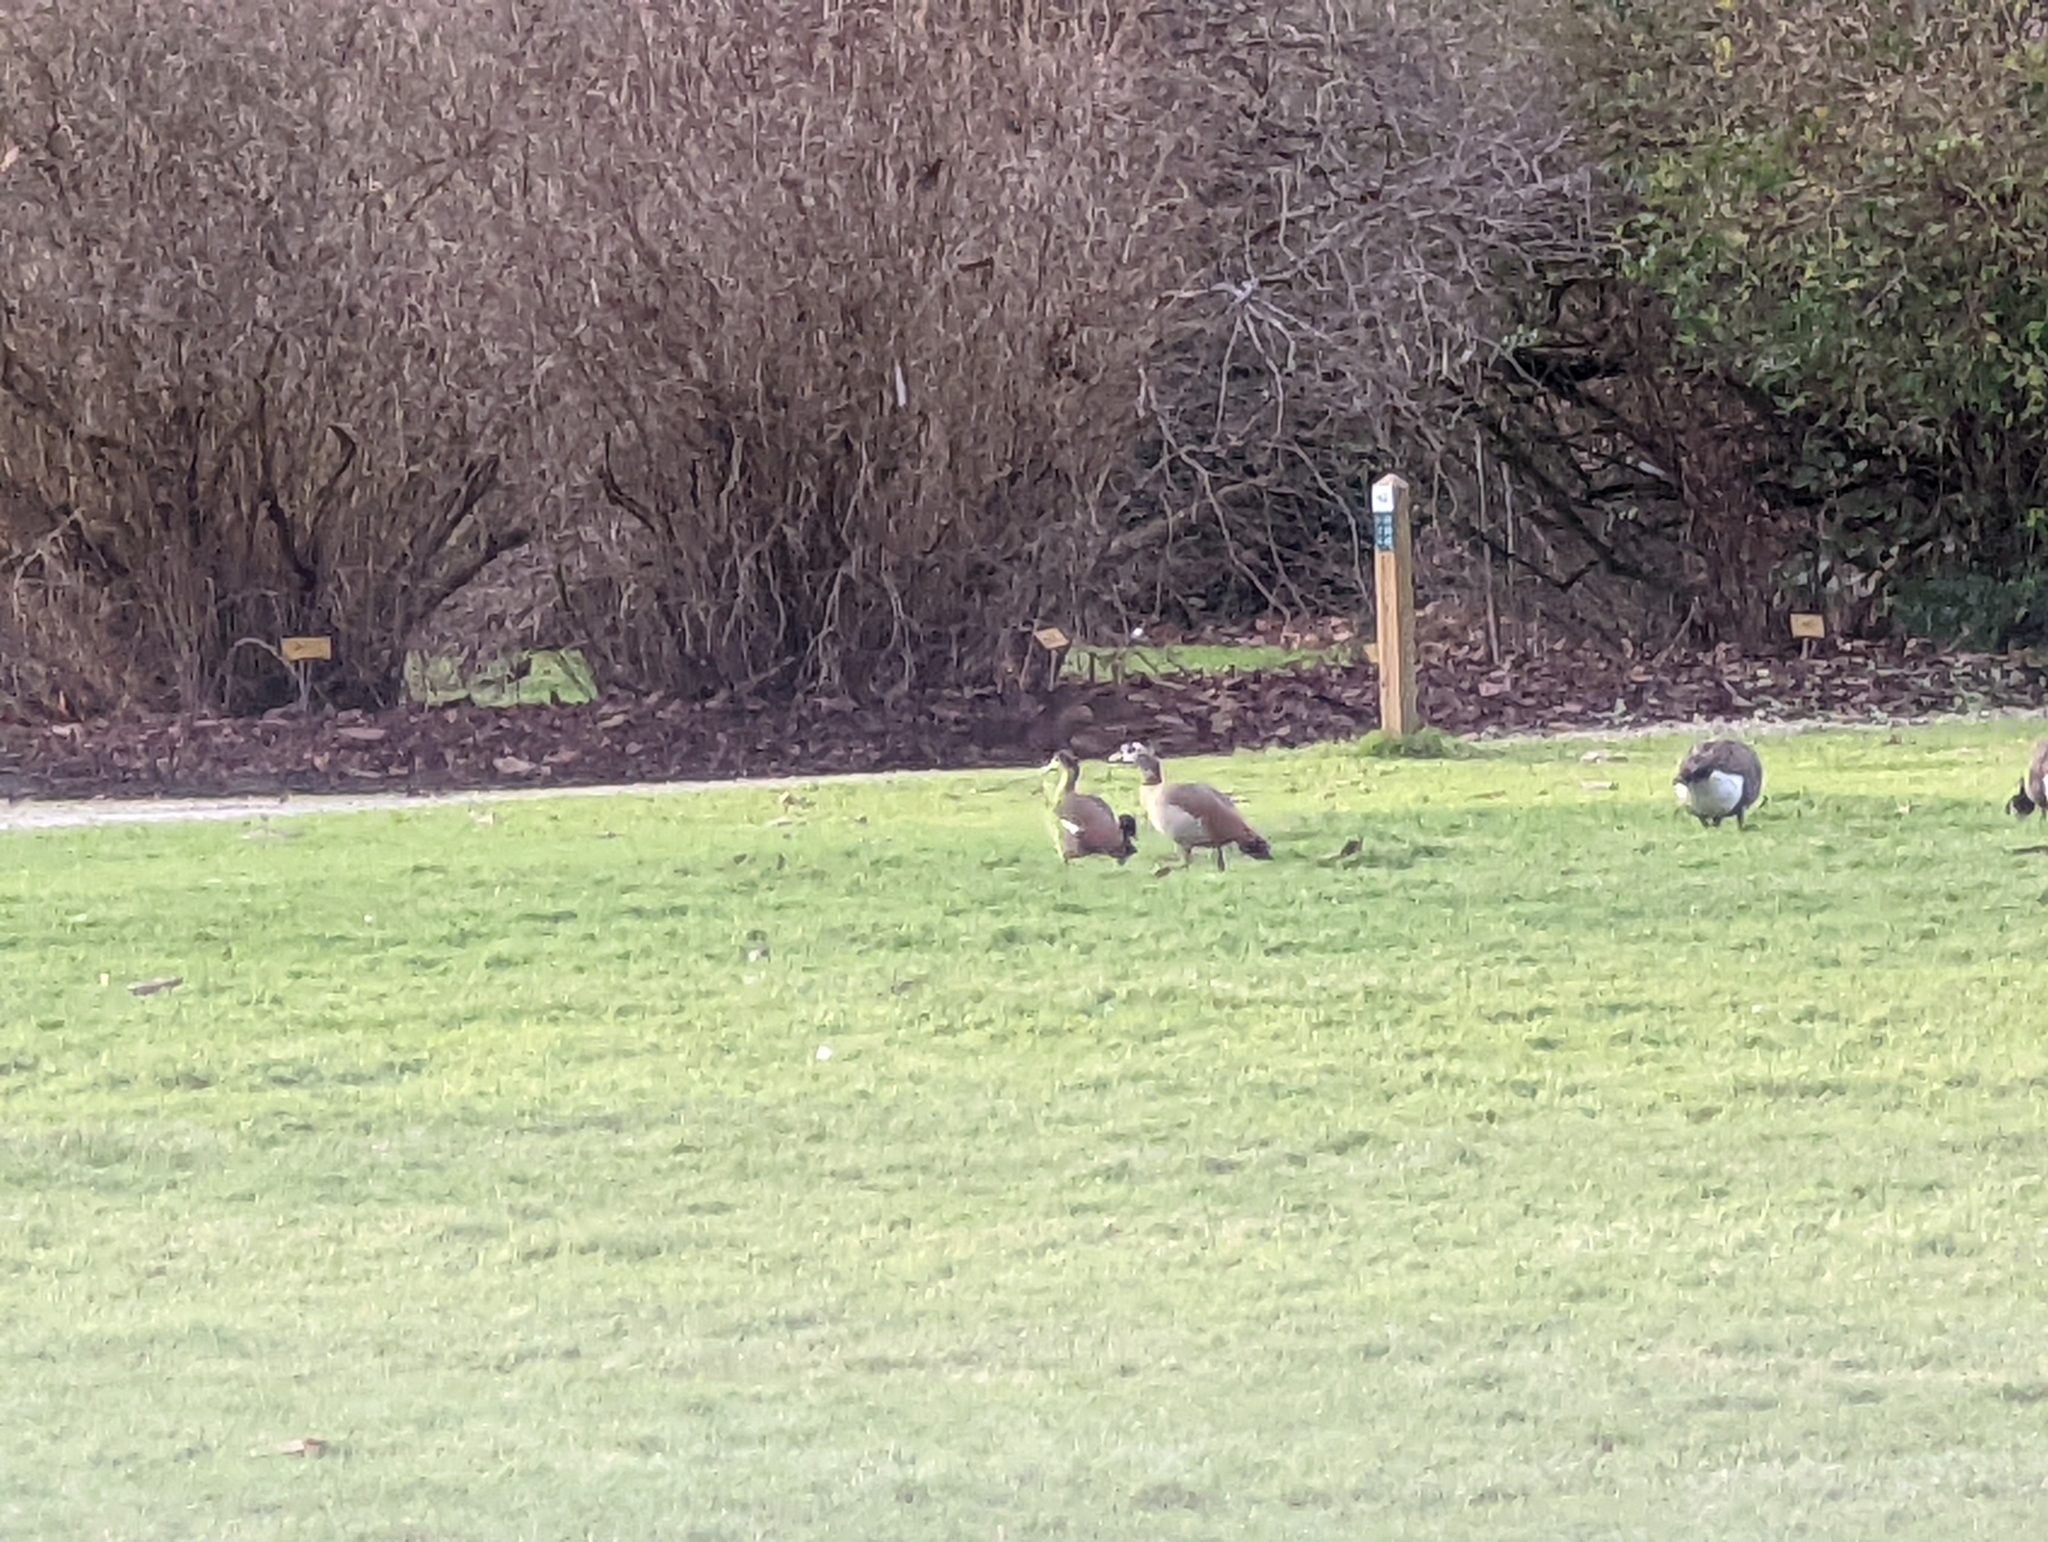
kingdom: Animalia
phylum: Chordata
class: Aves
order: Anseriformes
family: Anatidae
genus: Alopochen
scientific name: Alopochen aegyptiaca
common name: Egyptian goose
